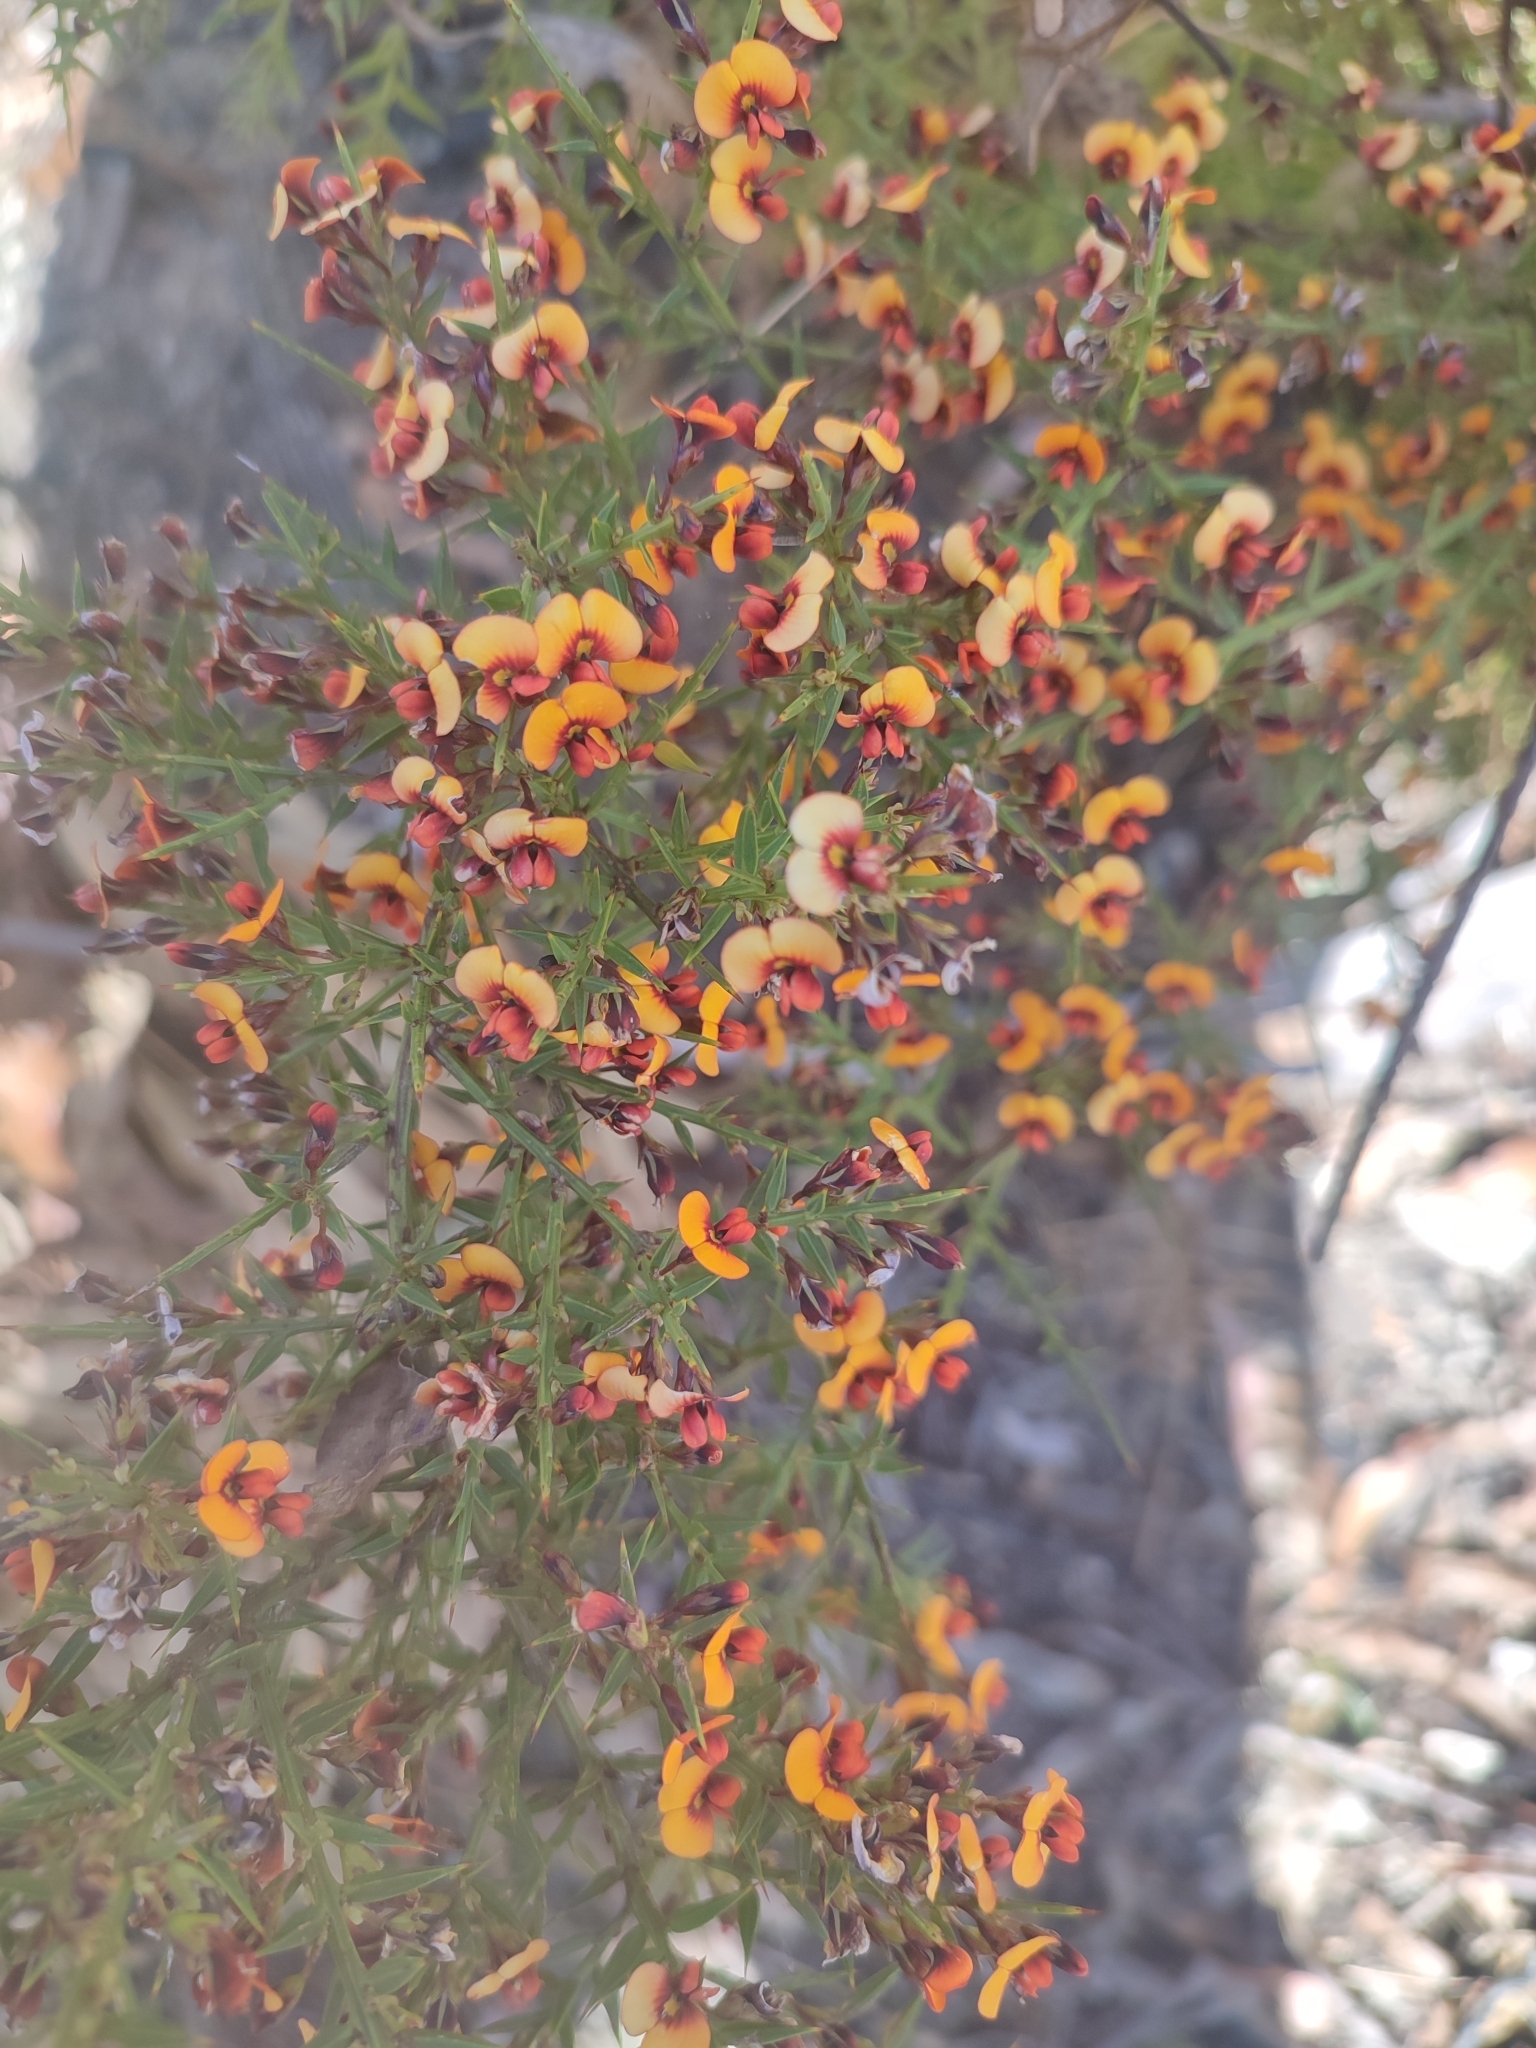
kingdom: Plantae
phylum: Tracheophyta
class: Magnoliopsida
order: Fabales
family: Fabaceae
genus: Daviesia
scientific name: Daviesia ulicifolia
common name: Gorse bitter-pea
